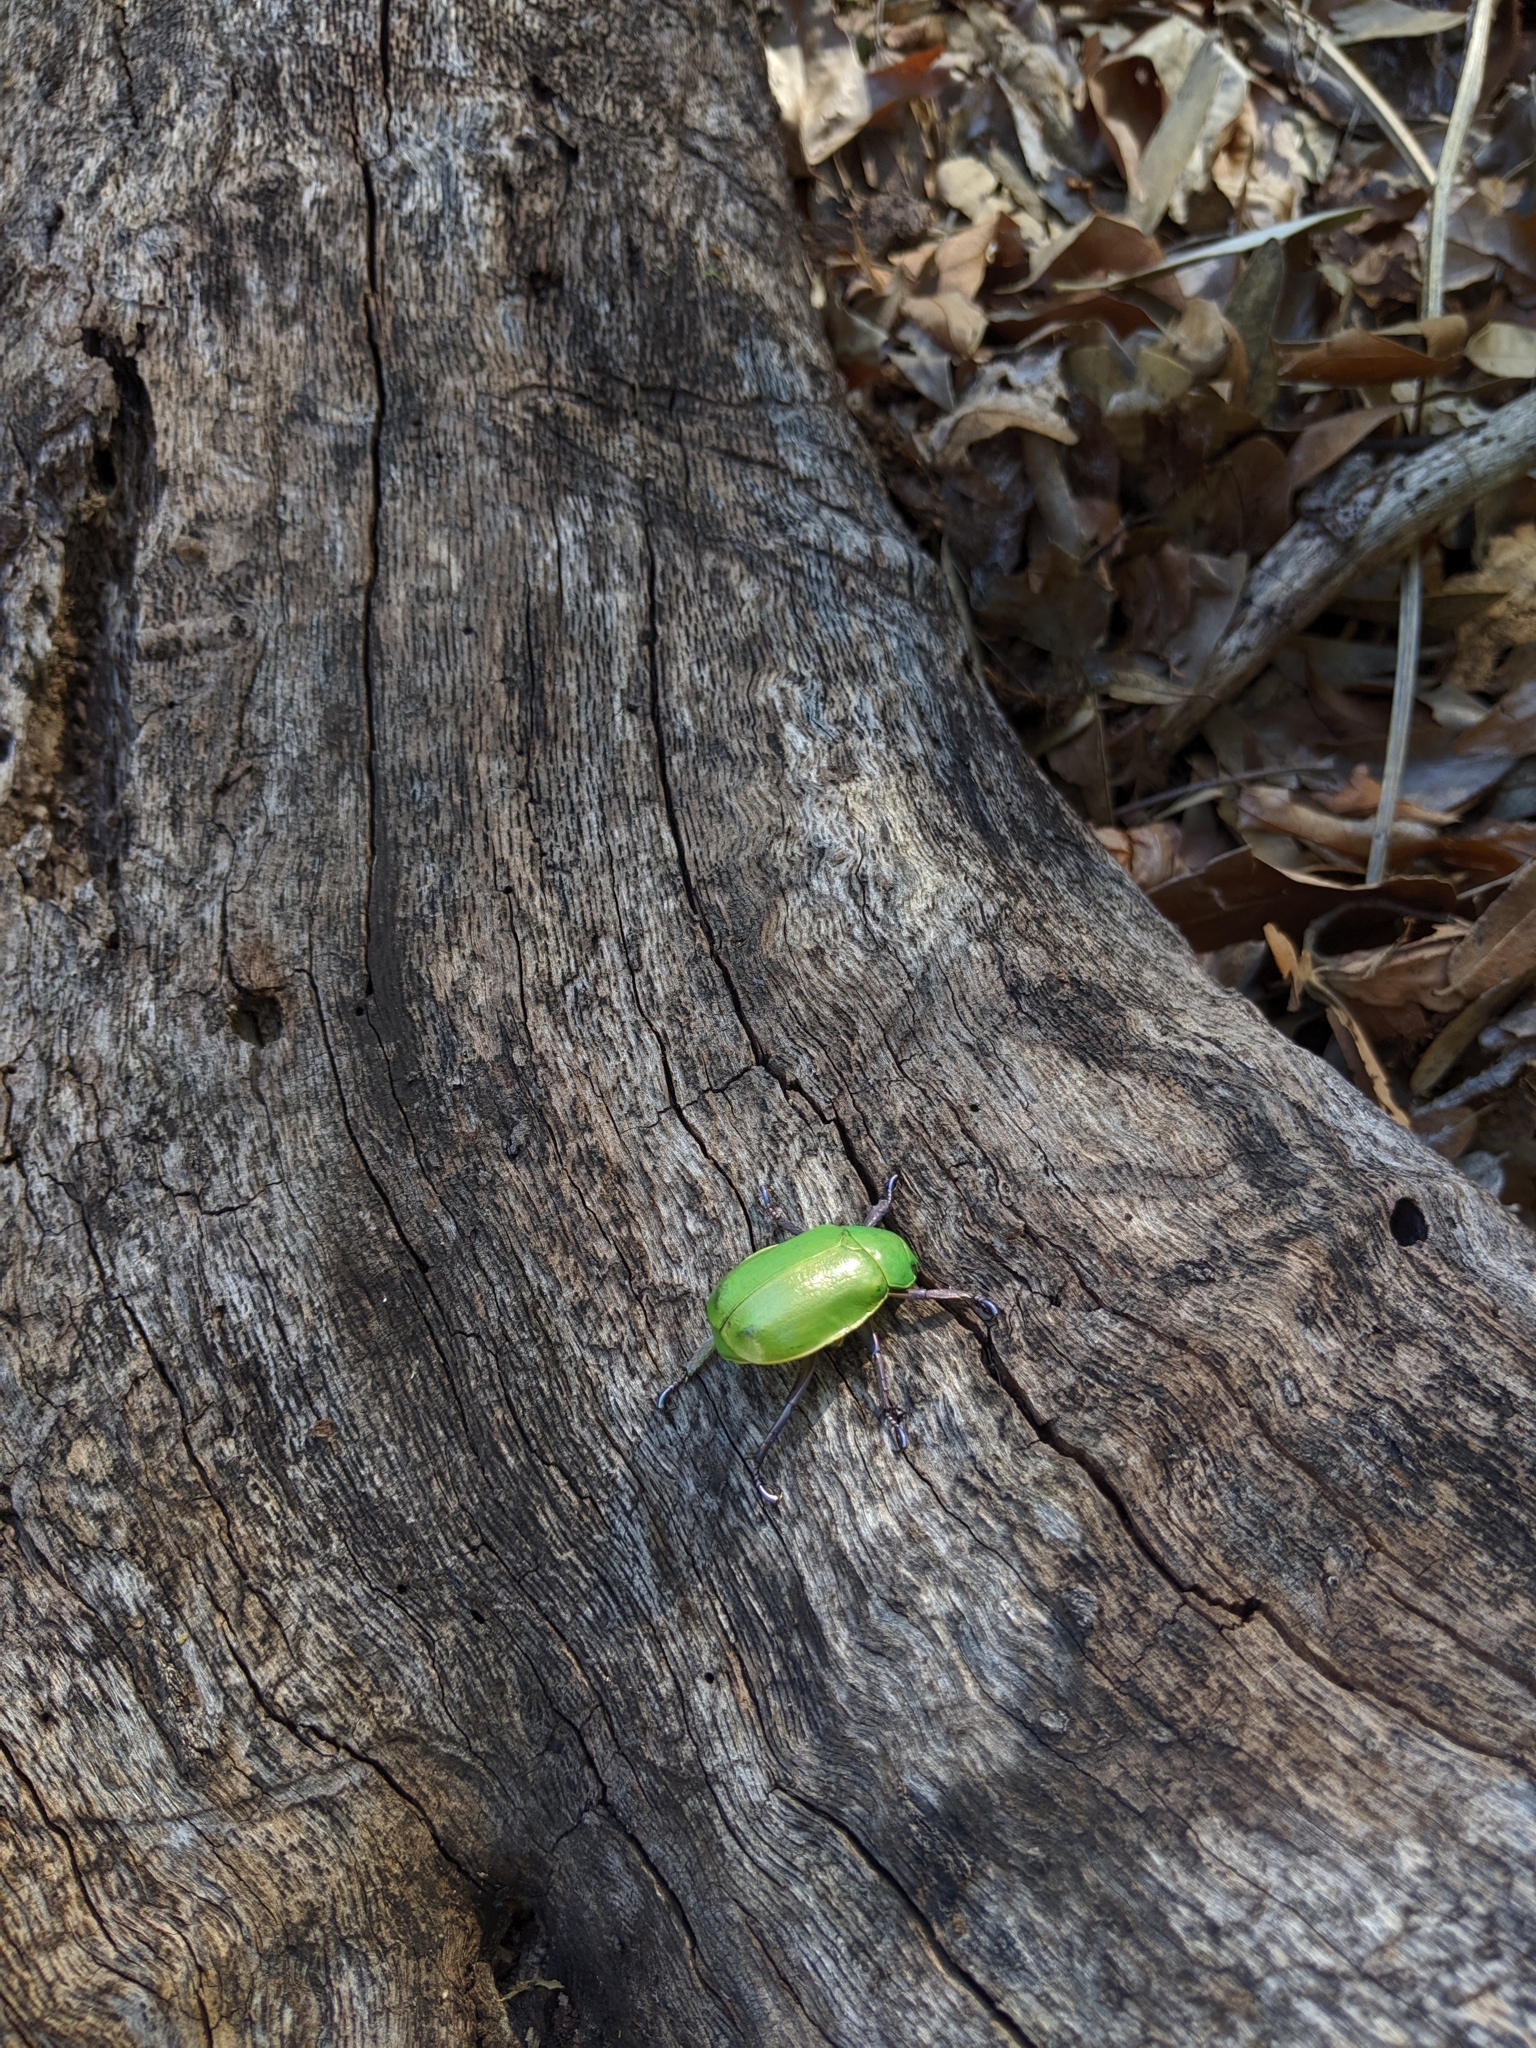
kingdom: Animalia
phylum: Arthropoda
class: Insecta
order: Coleoptera
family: Scarabaeidae
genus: Chrysina
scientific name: Chrysina beyeri
